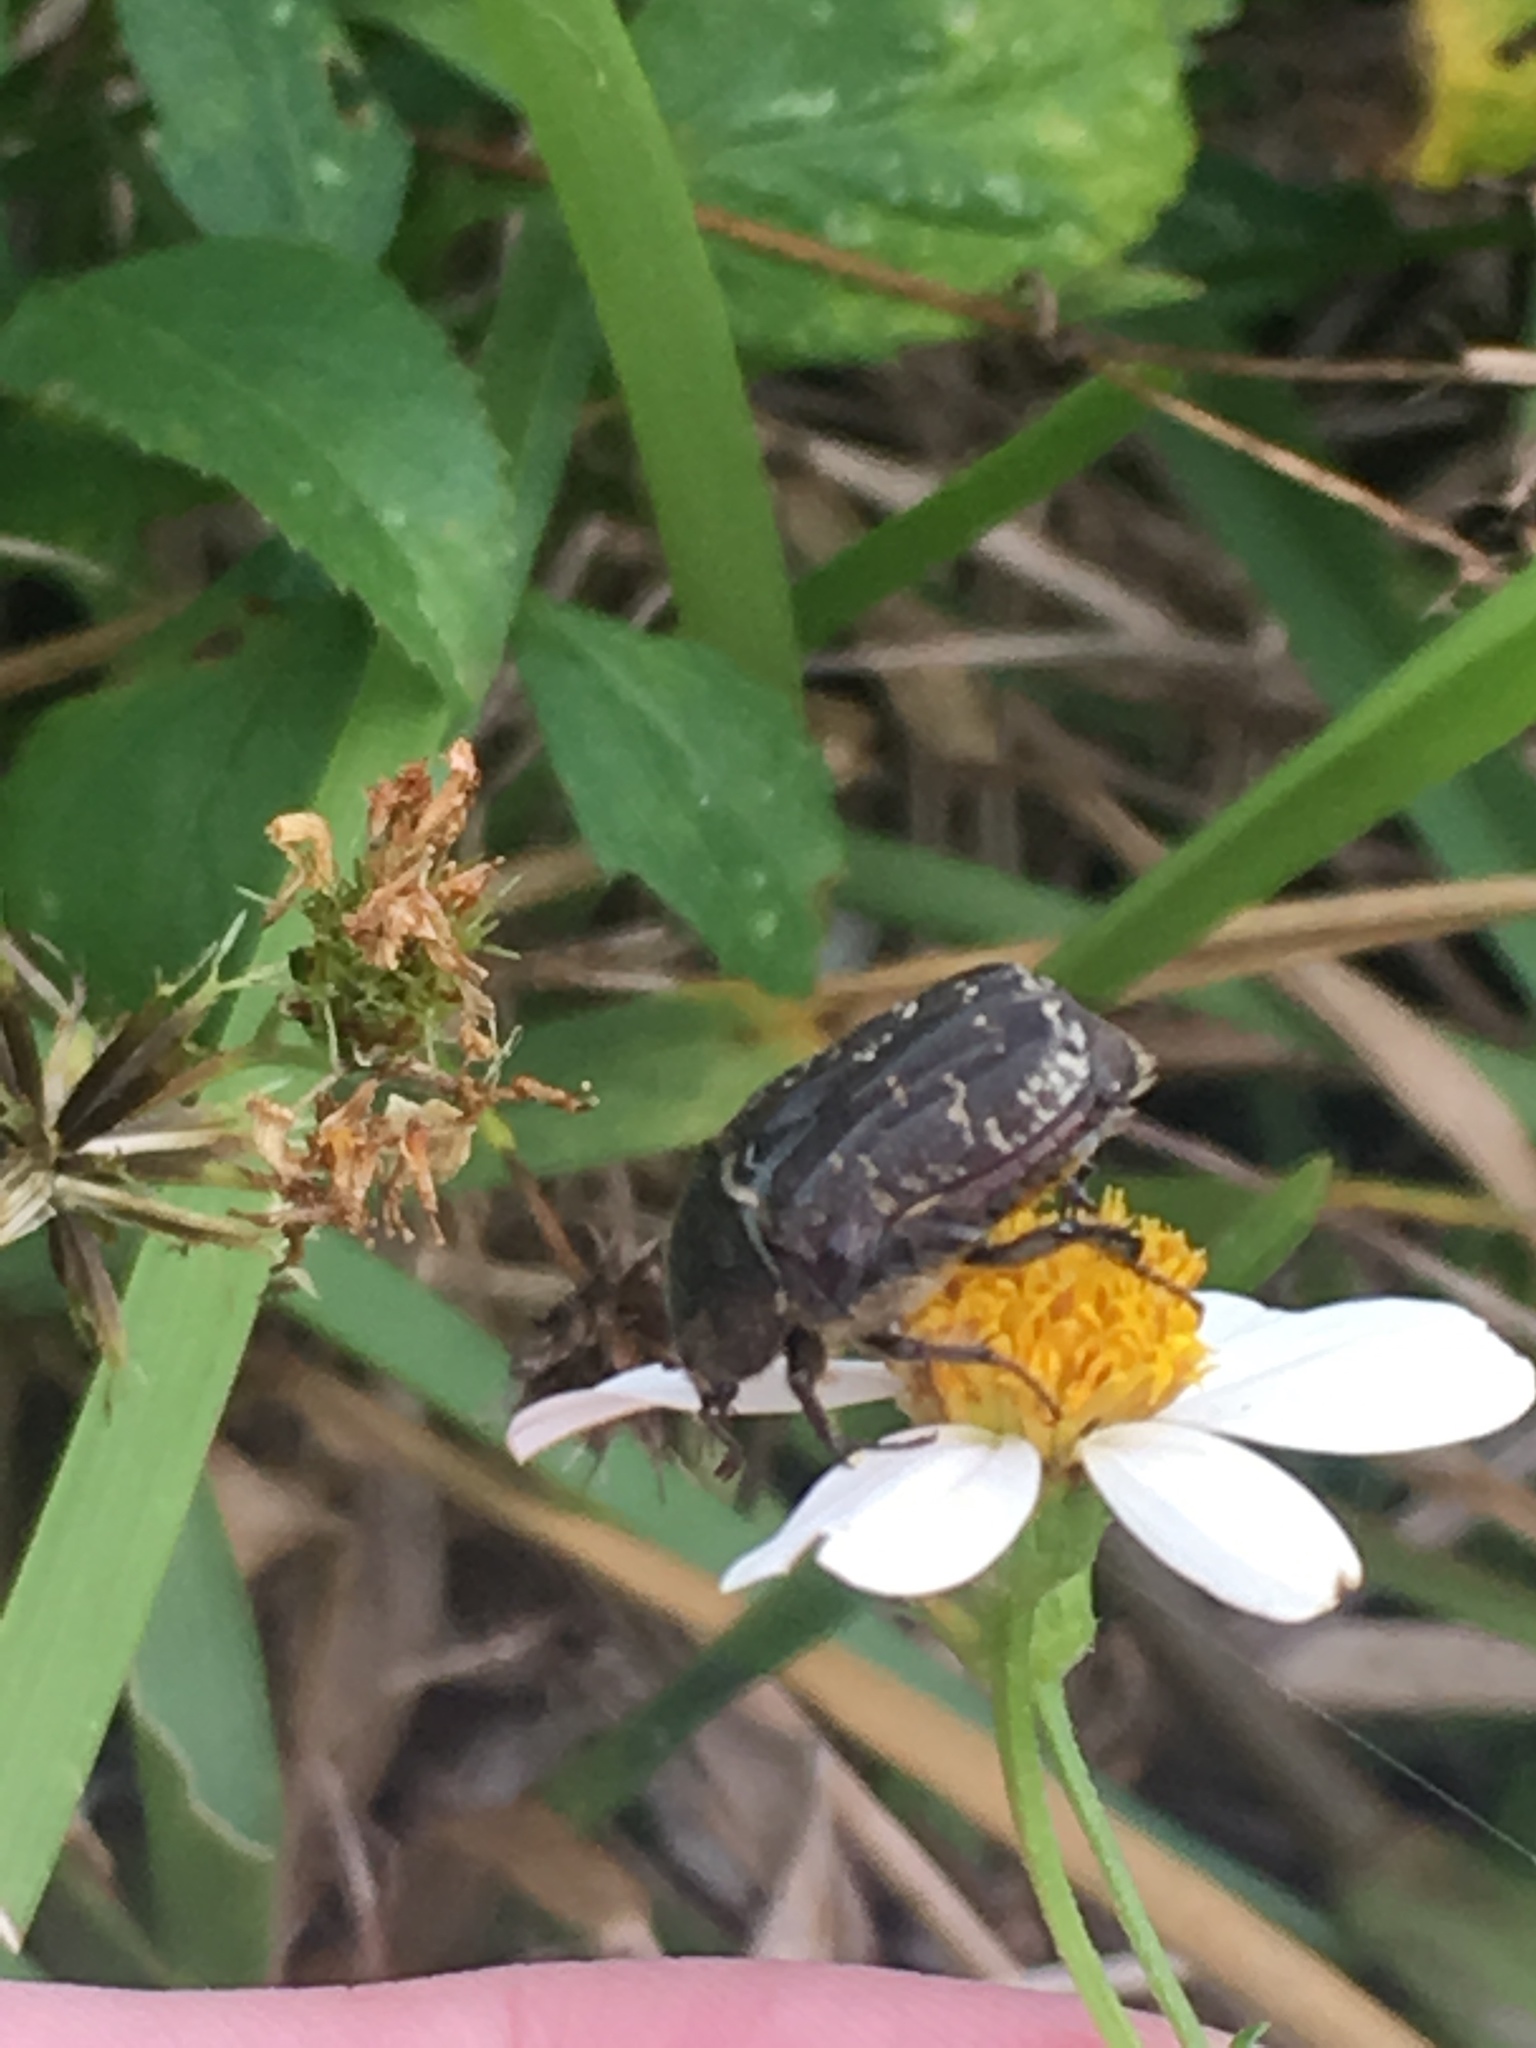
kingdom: Animalia
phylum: Arthropoda
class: Insecta
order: Coleoptera
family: Scarabaeidae
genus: Euphoria
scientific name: Euphoria sepulcralis
